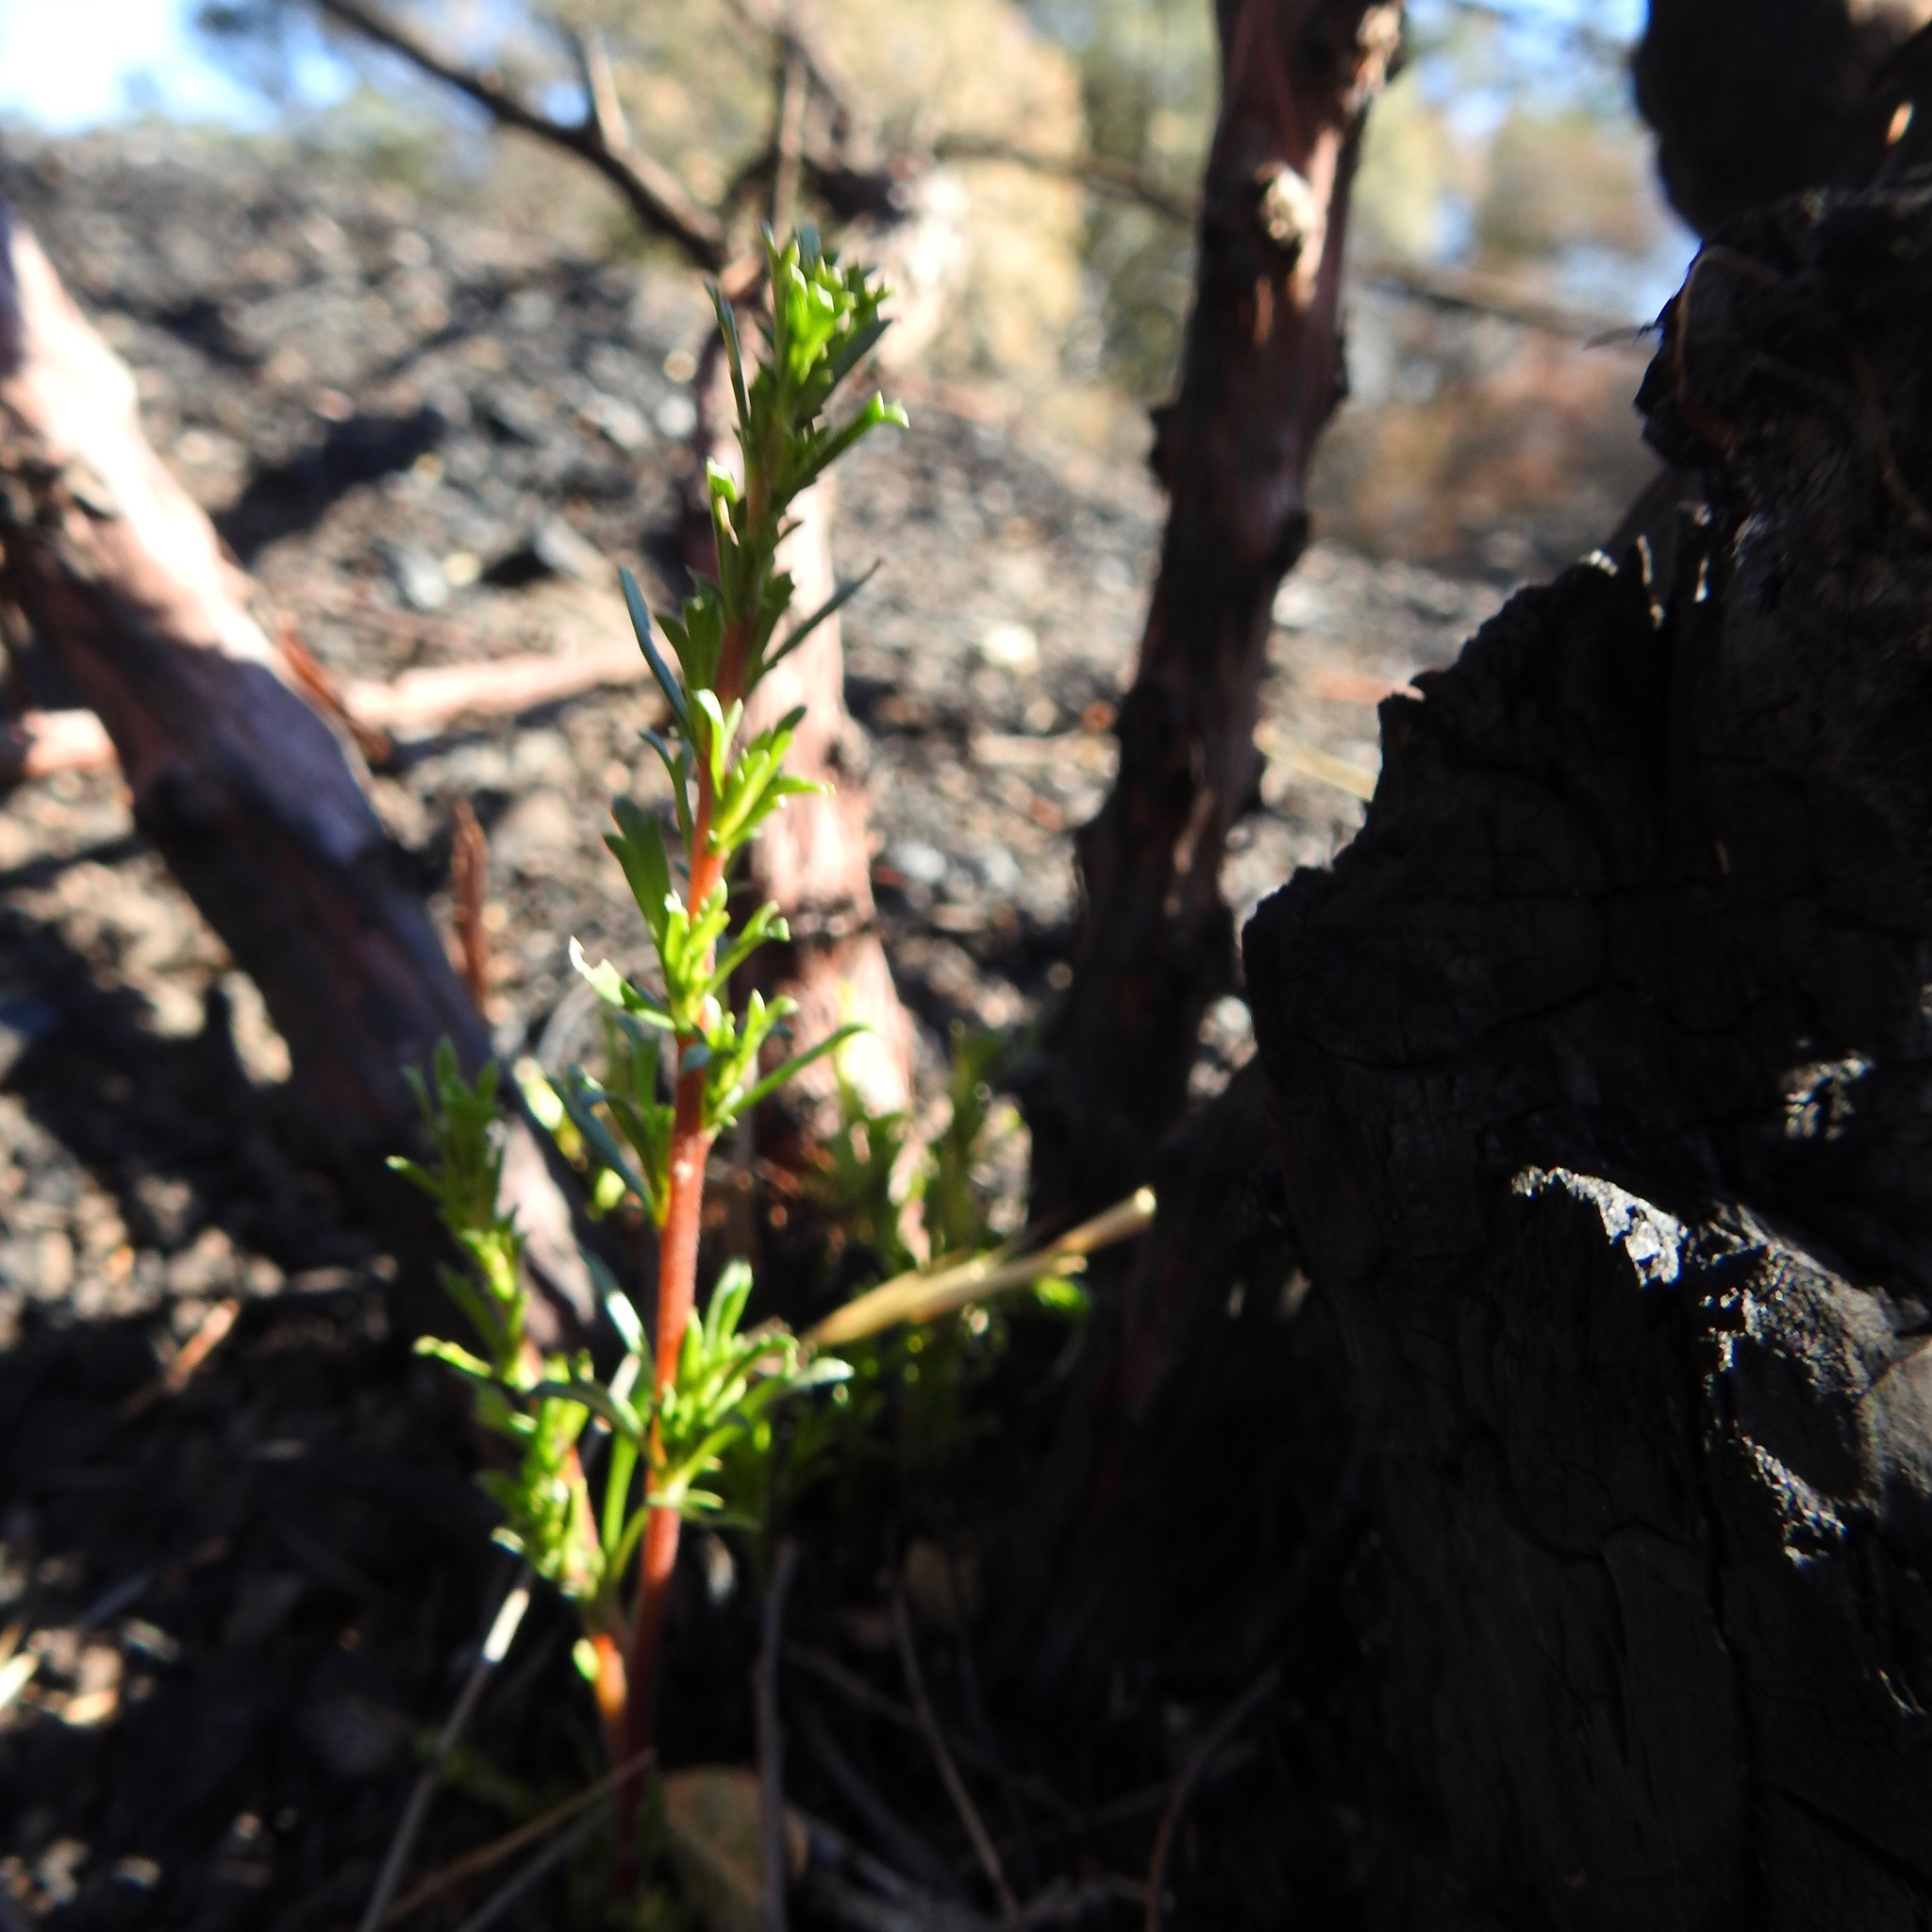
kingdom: Plantae
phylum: Tracheophyta
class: Magnoliopsida
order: Rosales
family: Rosaceae
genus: Adenostoma
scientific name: Adenostoma fasciculatum
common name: Chamise
